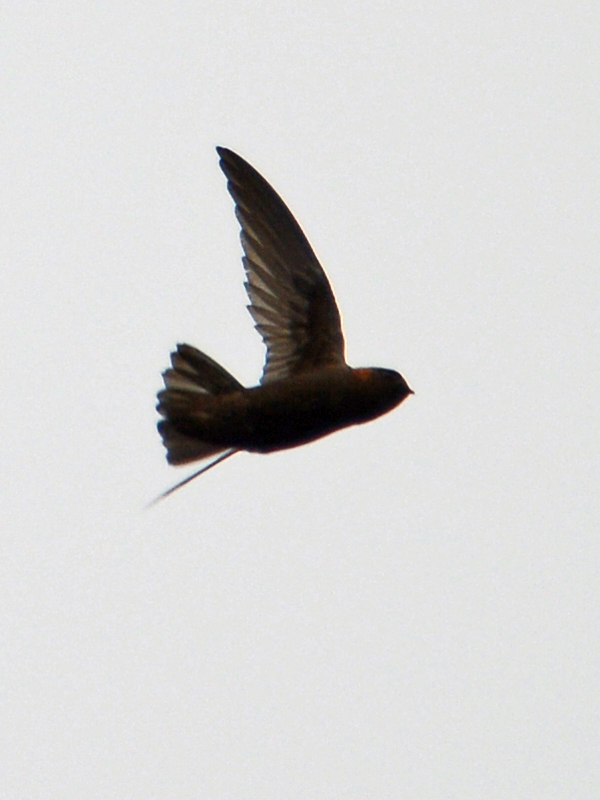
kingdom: Animalia
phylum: Chordata
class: Aves
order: Apodiformes
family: Apodidae
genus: Streptoprocne
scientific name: Streptoprocne rutila
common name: Chestnut-collared swift
